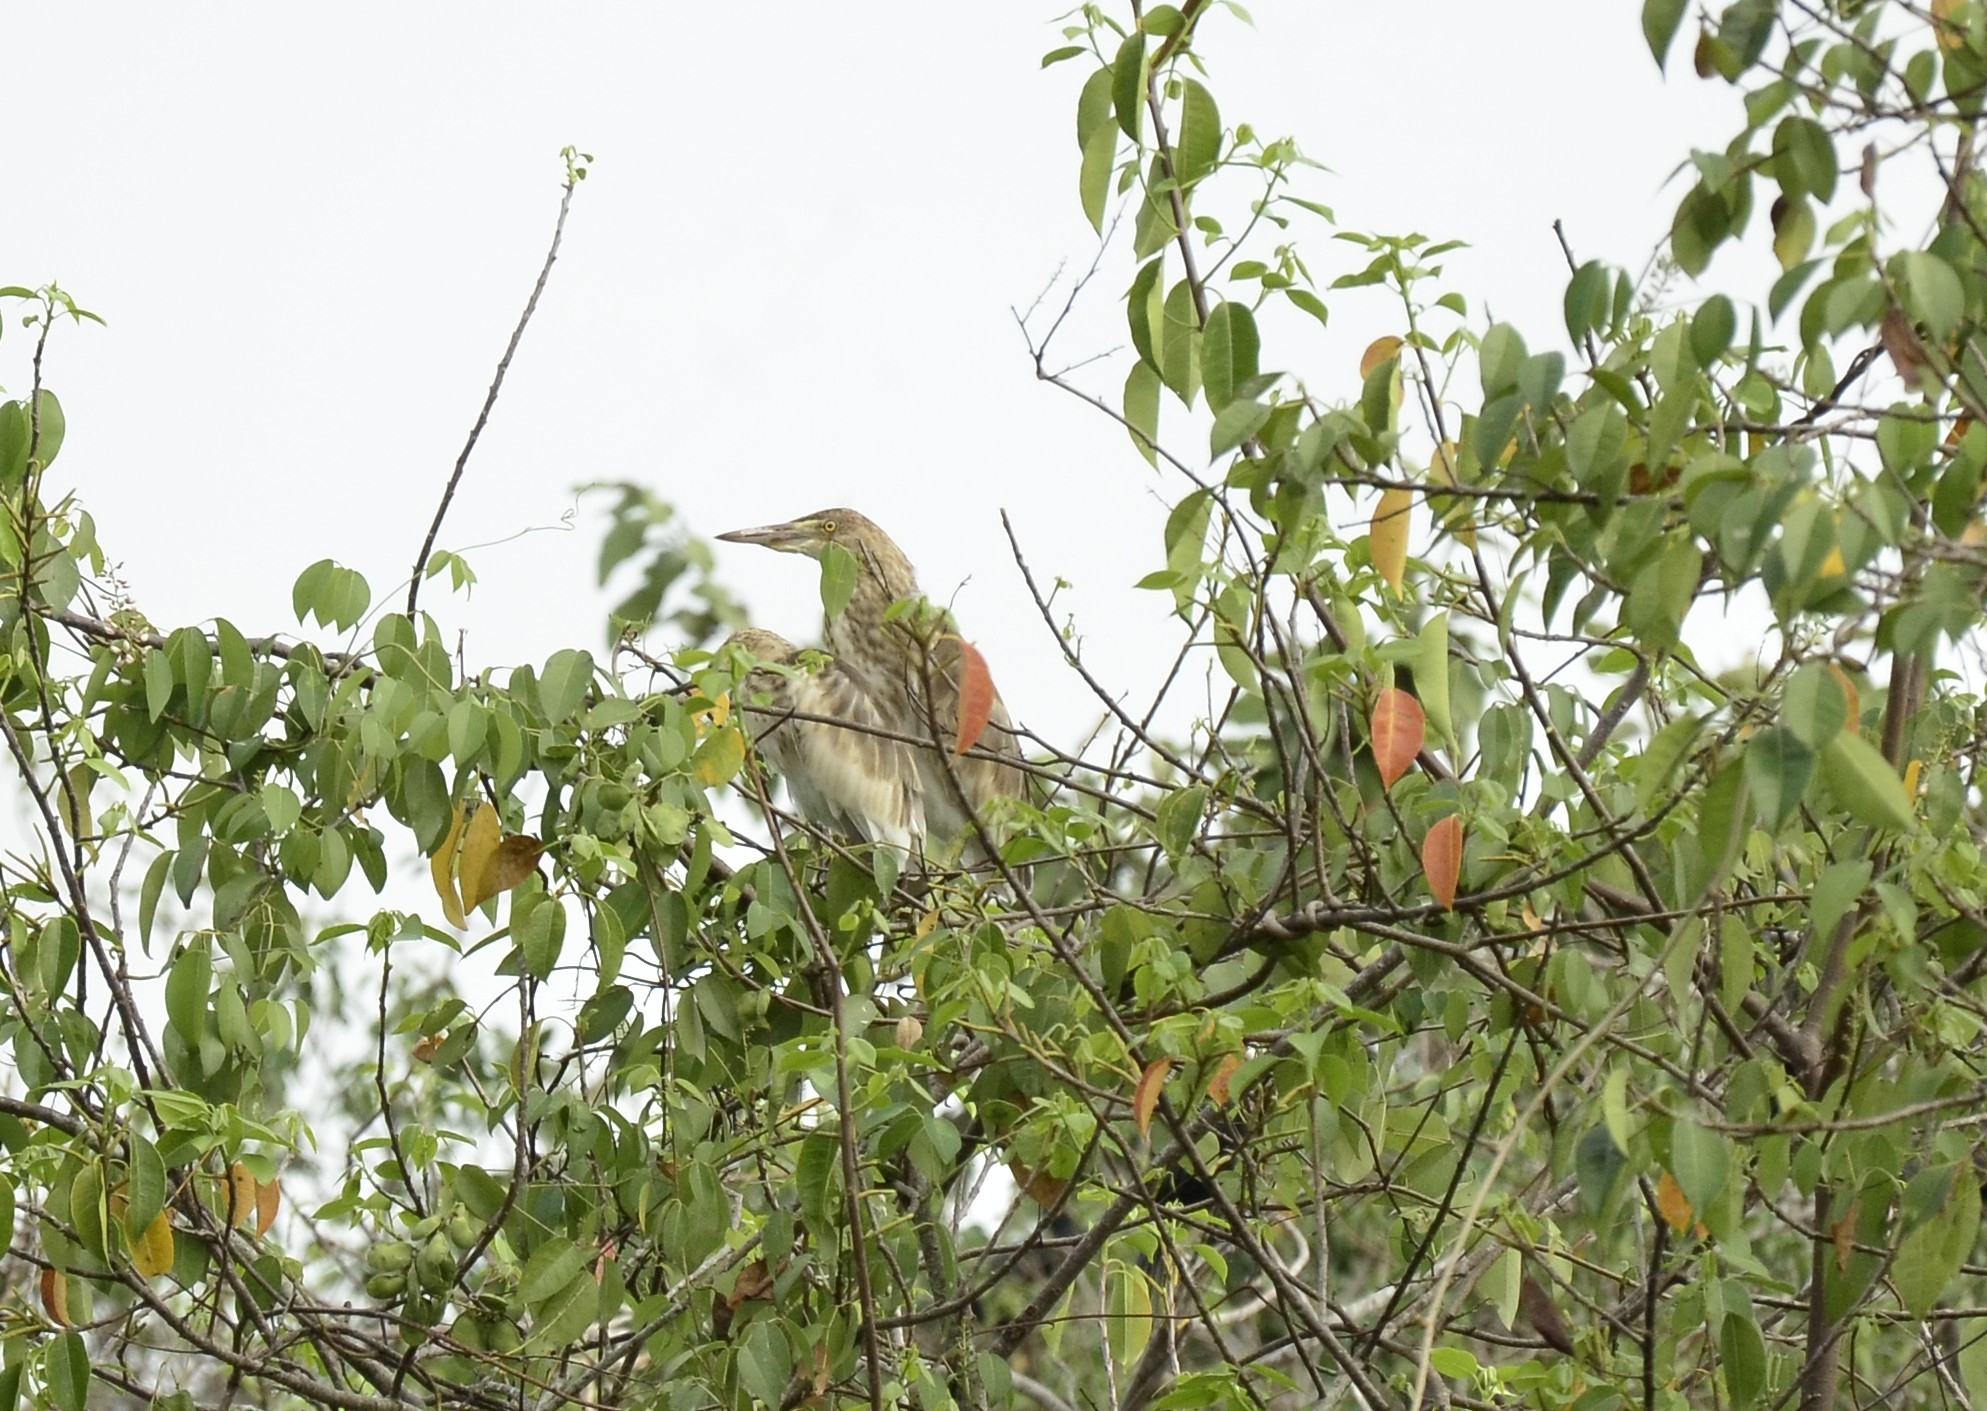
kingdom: Animalia
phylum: Chordata
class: Aves
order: Pelecaniformes
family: Ardeidae
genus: Ardeola
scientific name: Ardeola grayii
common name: Indian pond heron
